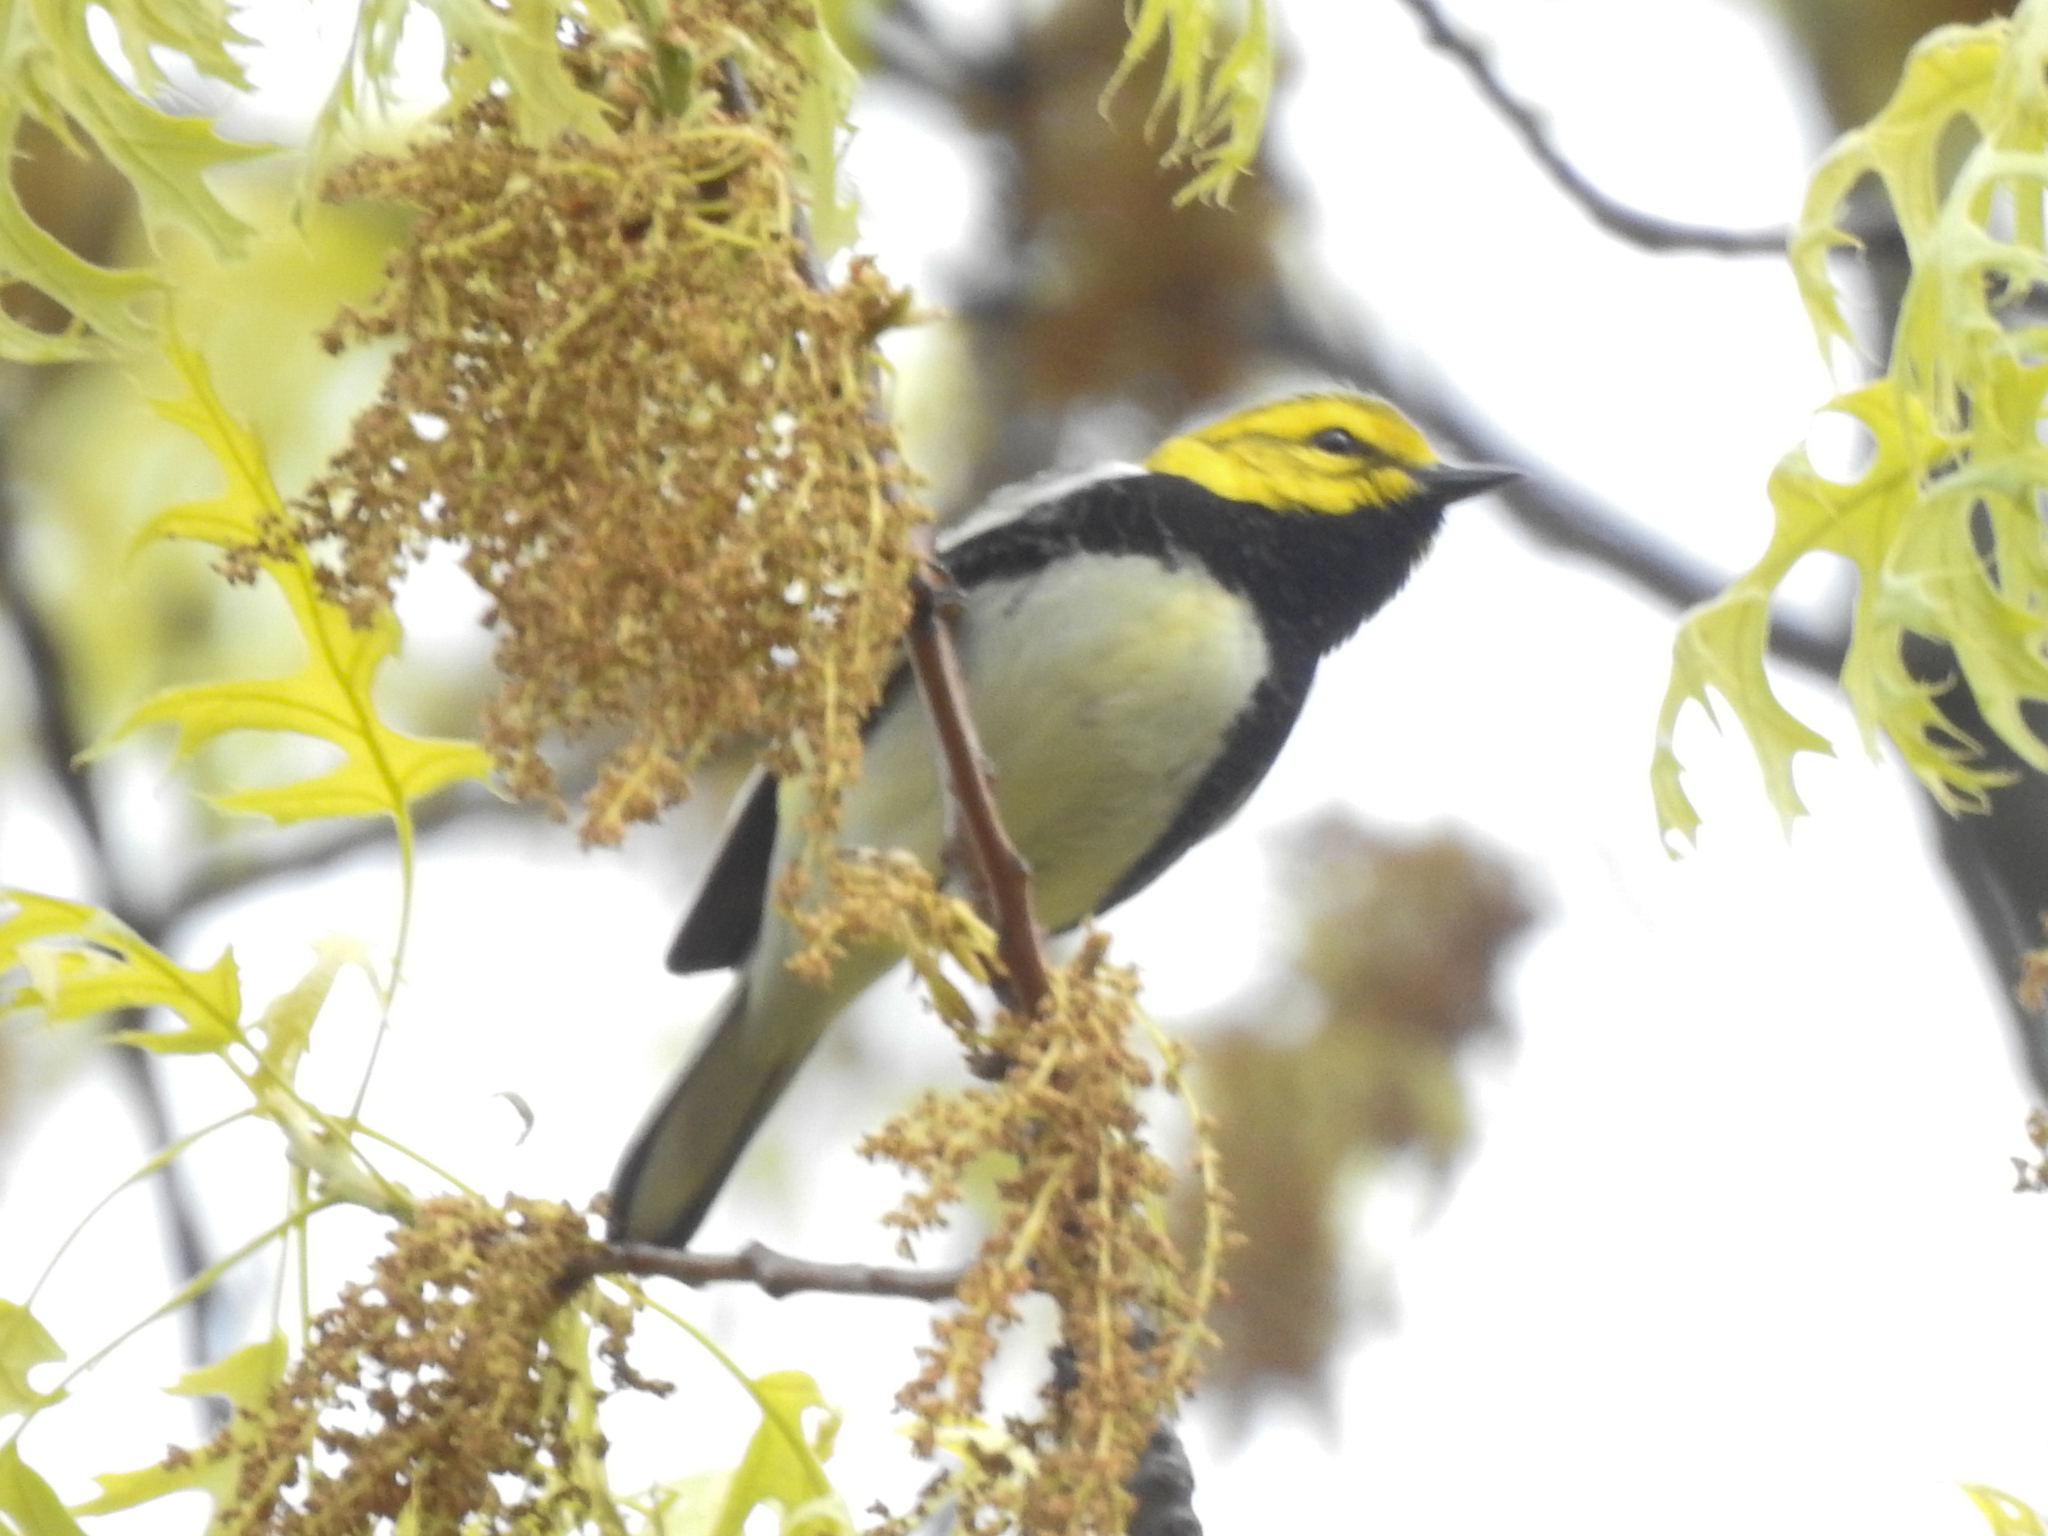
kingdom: Animalia
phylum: Chordata
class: Aves
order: Passeriformes
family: Parulidae
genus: Setophaga
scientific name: Setophaga virens
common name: Black-throated green warbler
